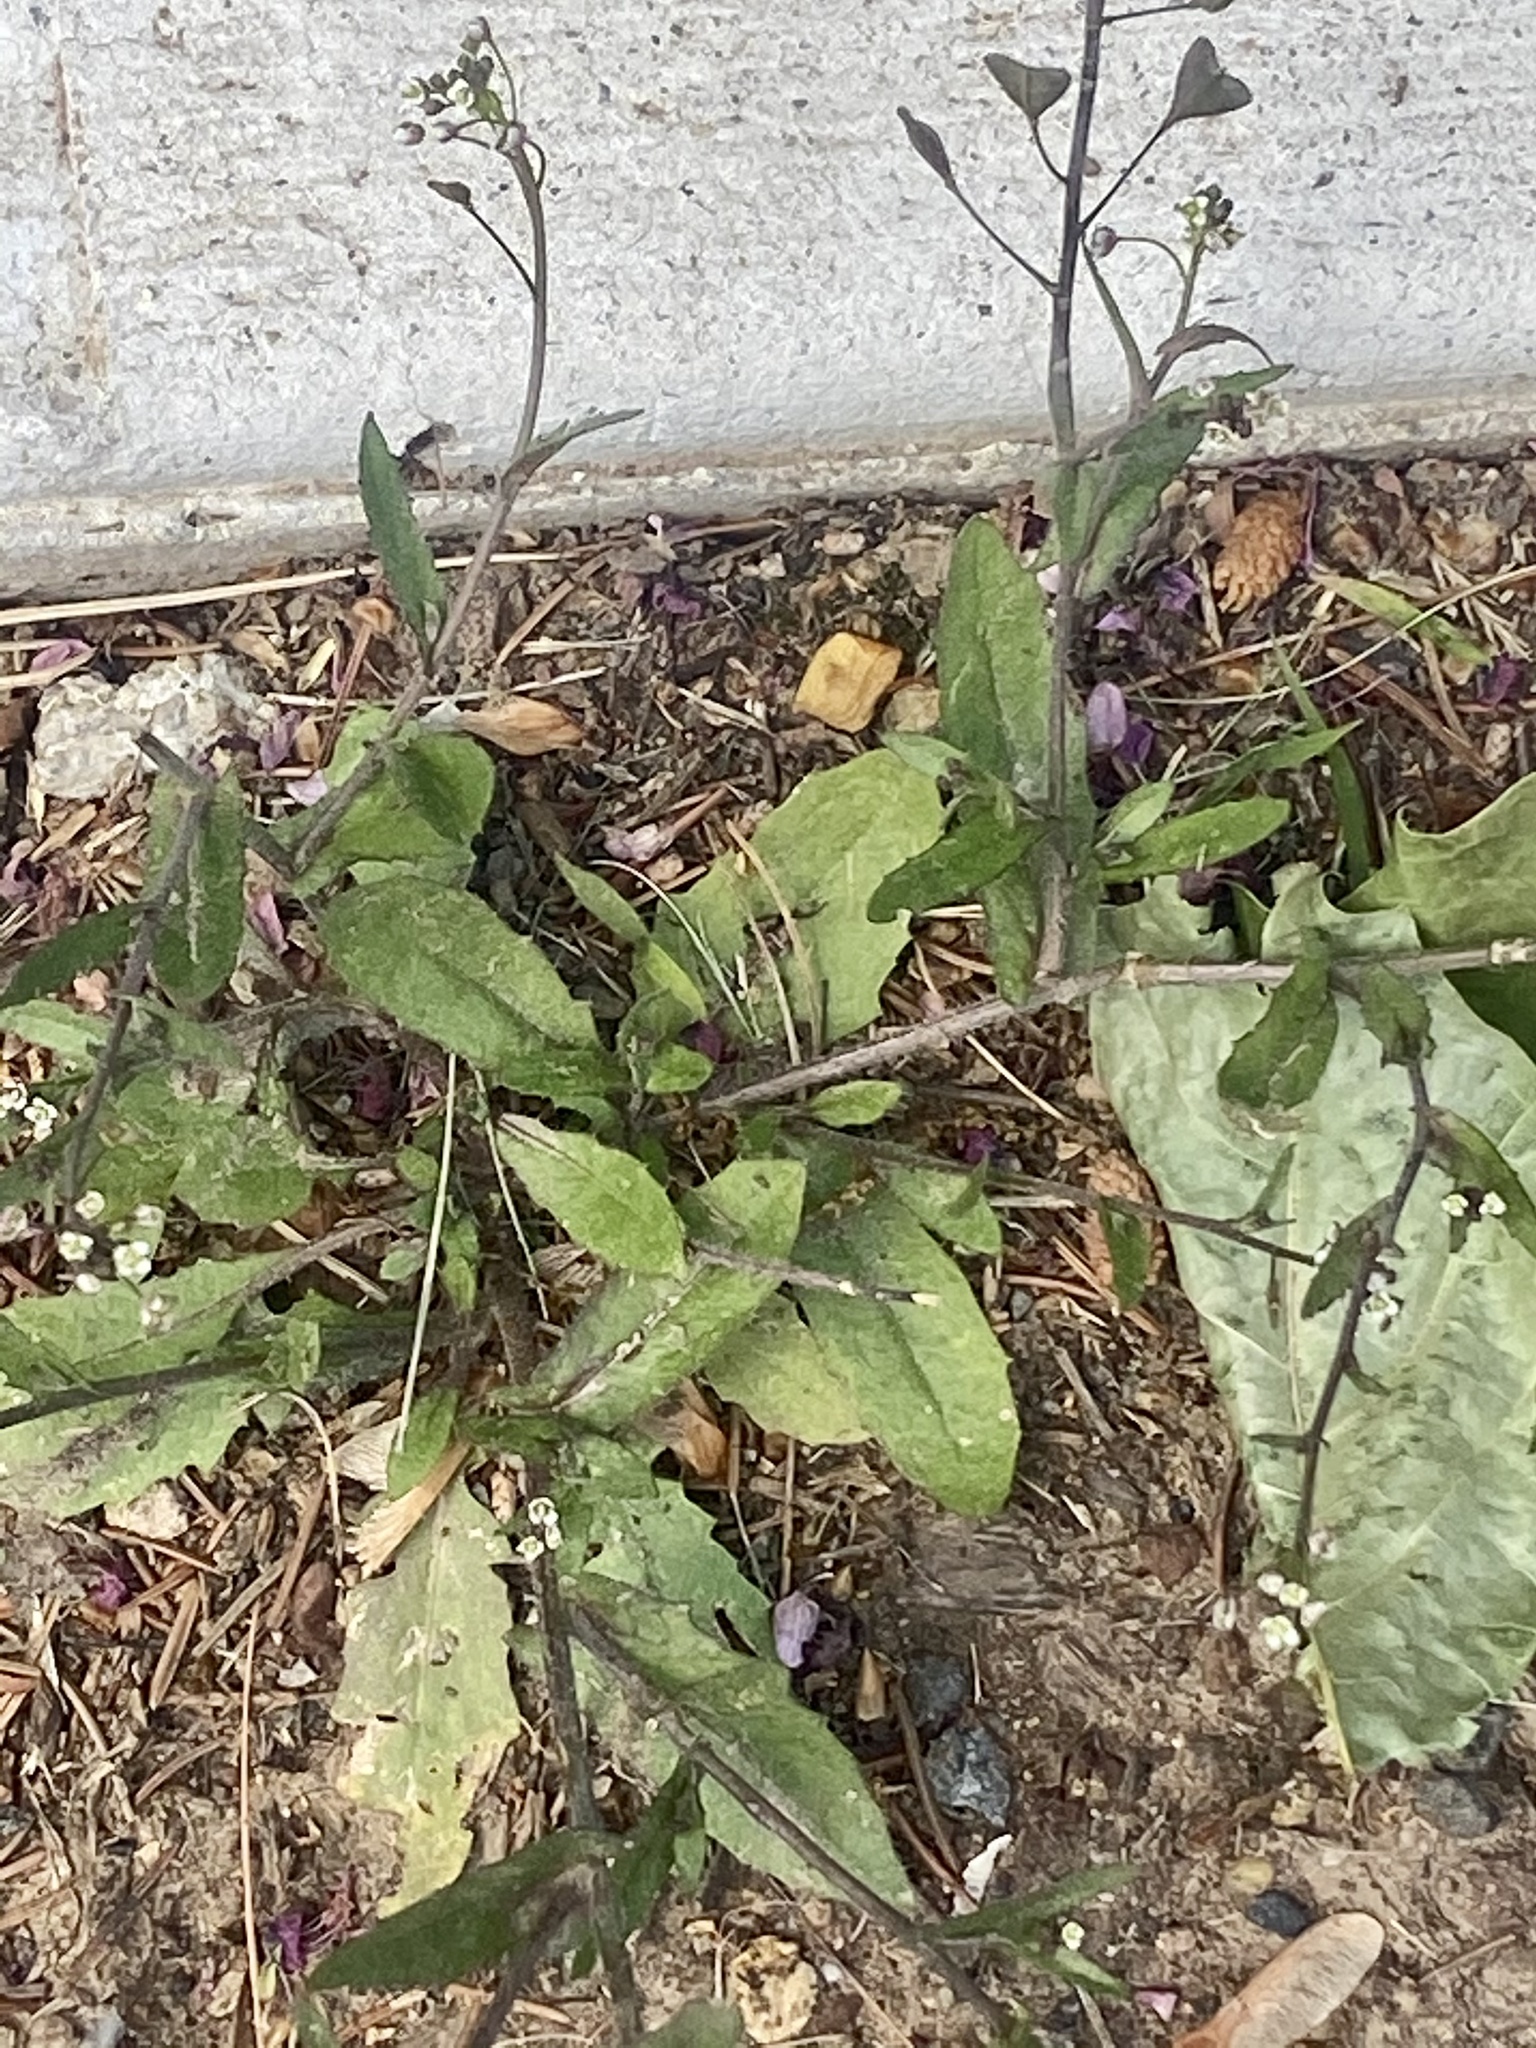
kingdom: Plantae
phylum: Tracheophyta
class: Magnoliopsida
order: Brassicales
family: Brassicaceae
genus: Capsella
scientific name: Capsella bursa-pastoris
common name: Shepherd's purse
